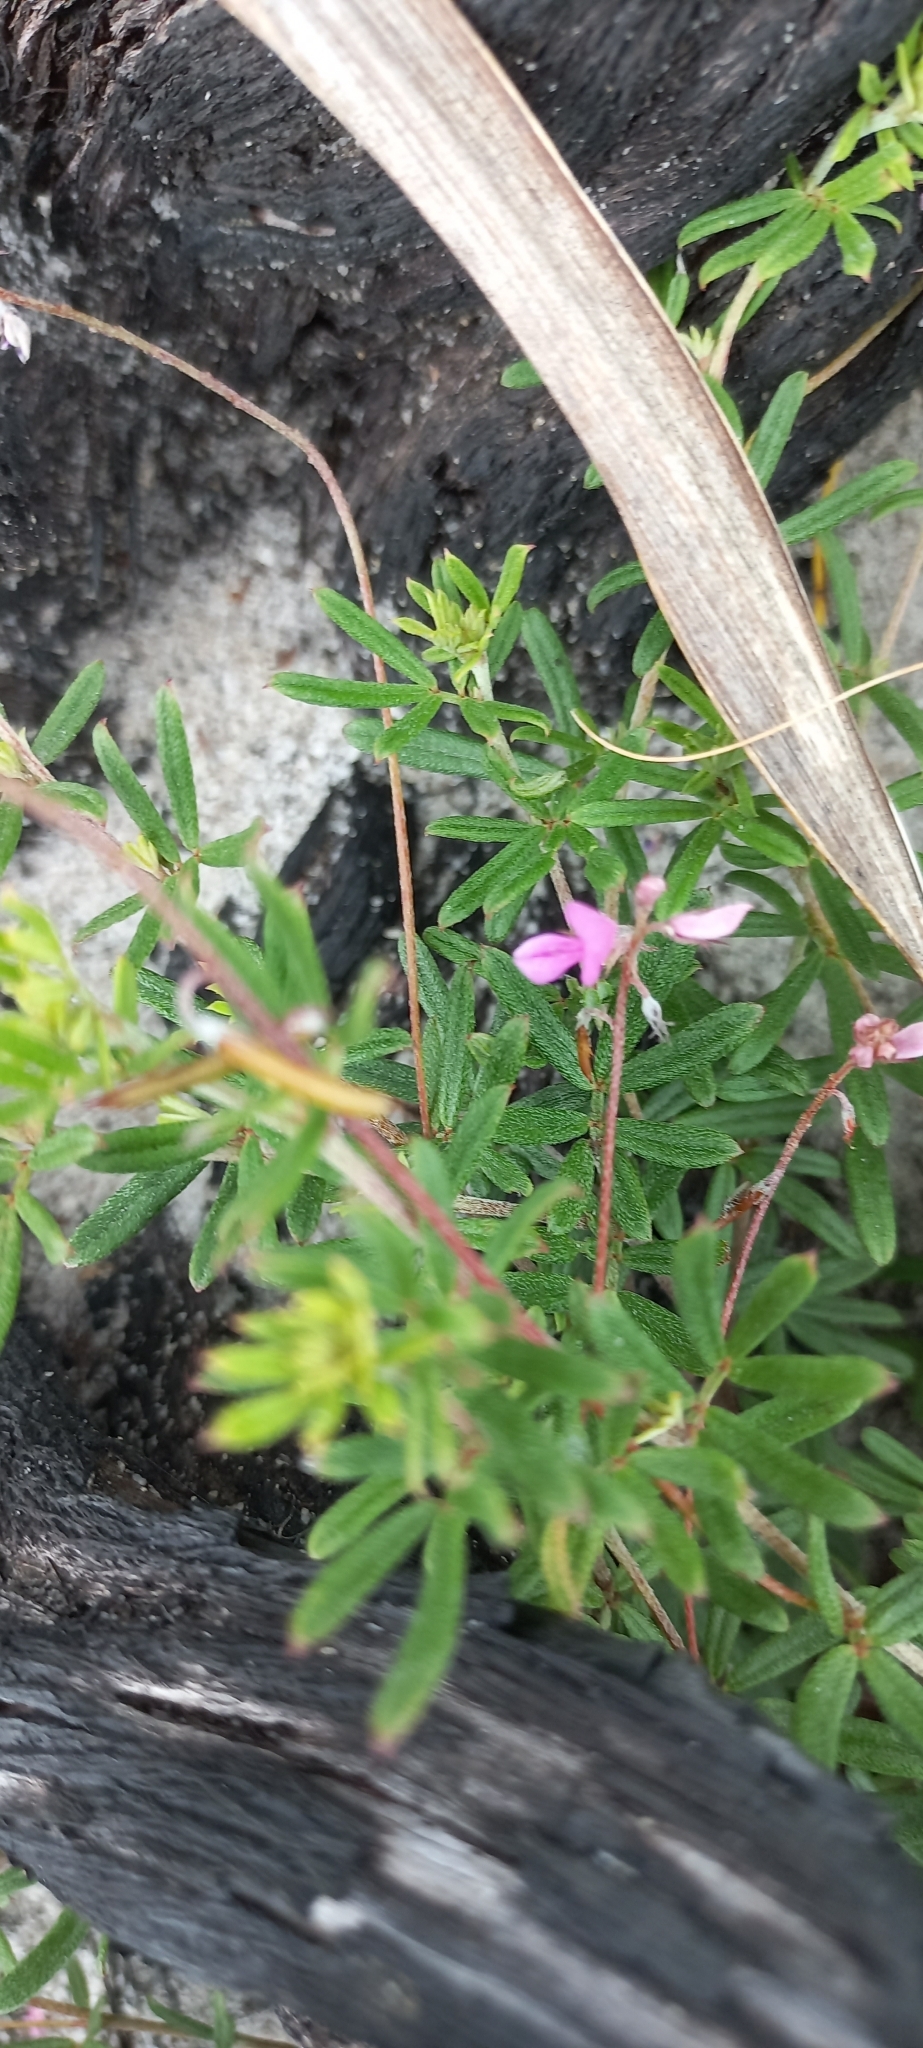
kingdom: Plantae
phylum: Tracheophyta
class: Magnoliopsida
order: Fabales
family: Fabaceae
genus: Indigofera
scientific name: Indigofera angustifolia
